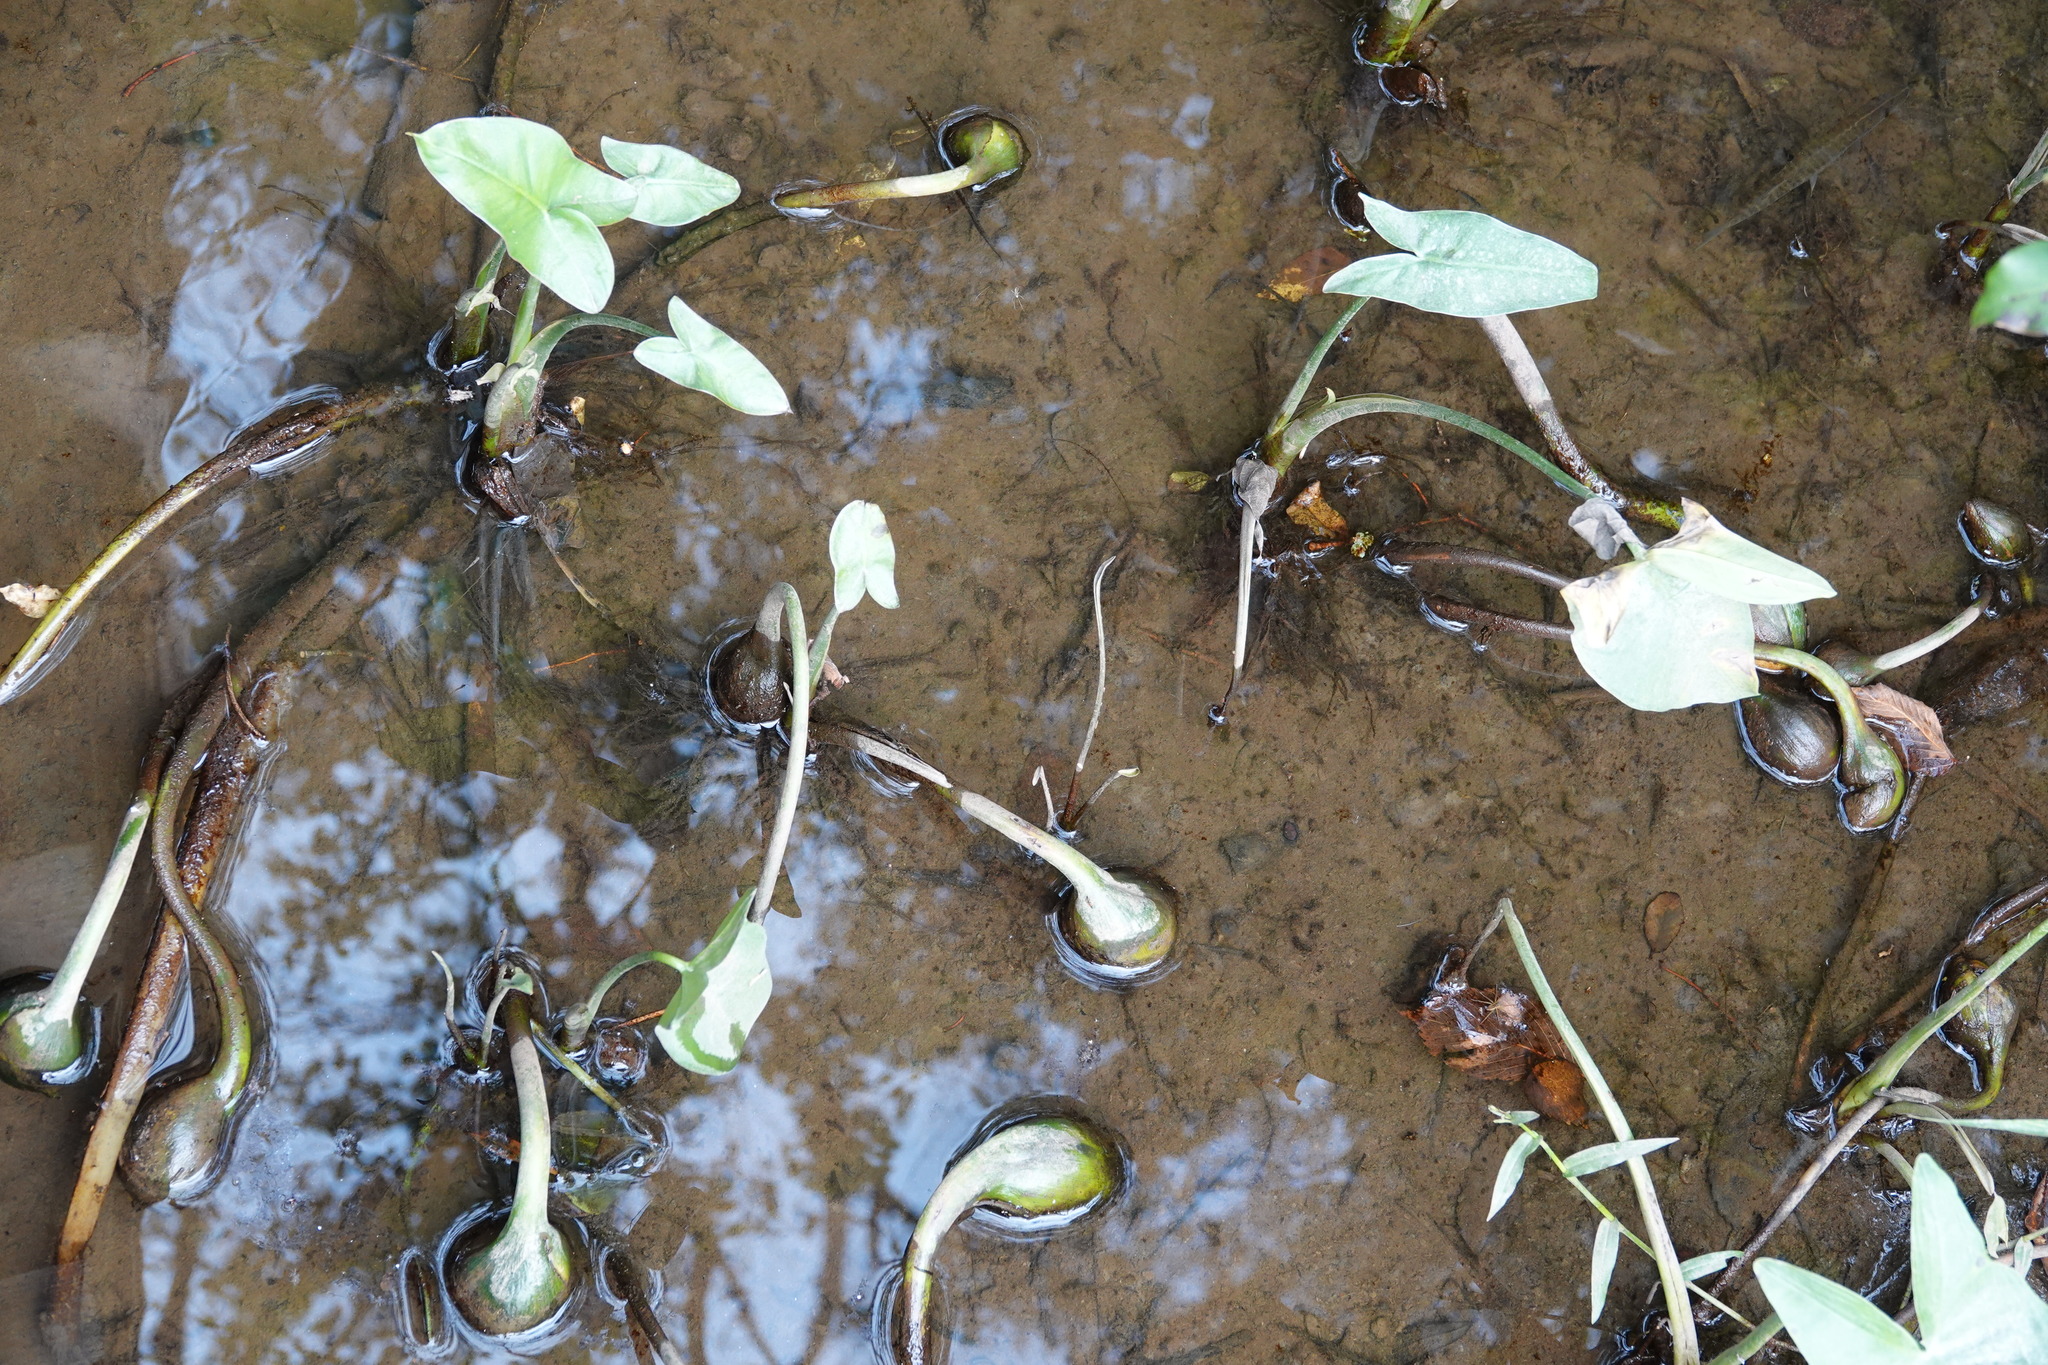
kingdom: Plantae
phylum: Tracheophyta
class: Liliopsida
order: Alismatales
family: Araceae
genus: Peltandra
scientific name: Peltandra virginica
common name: Arrow arum
